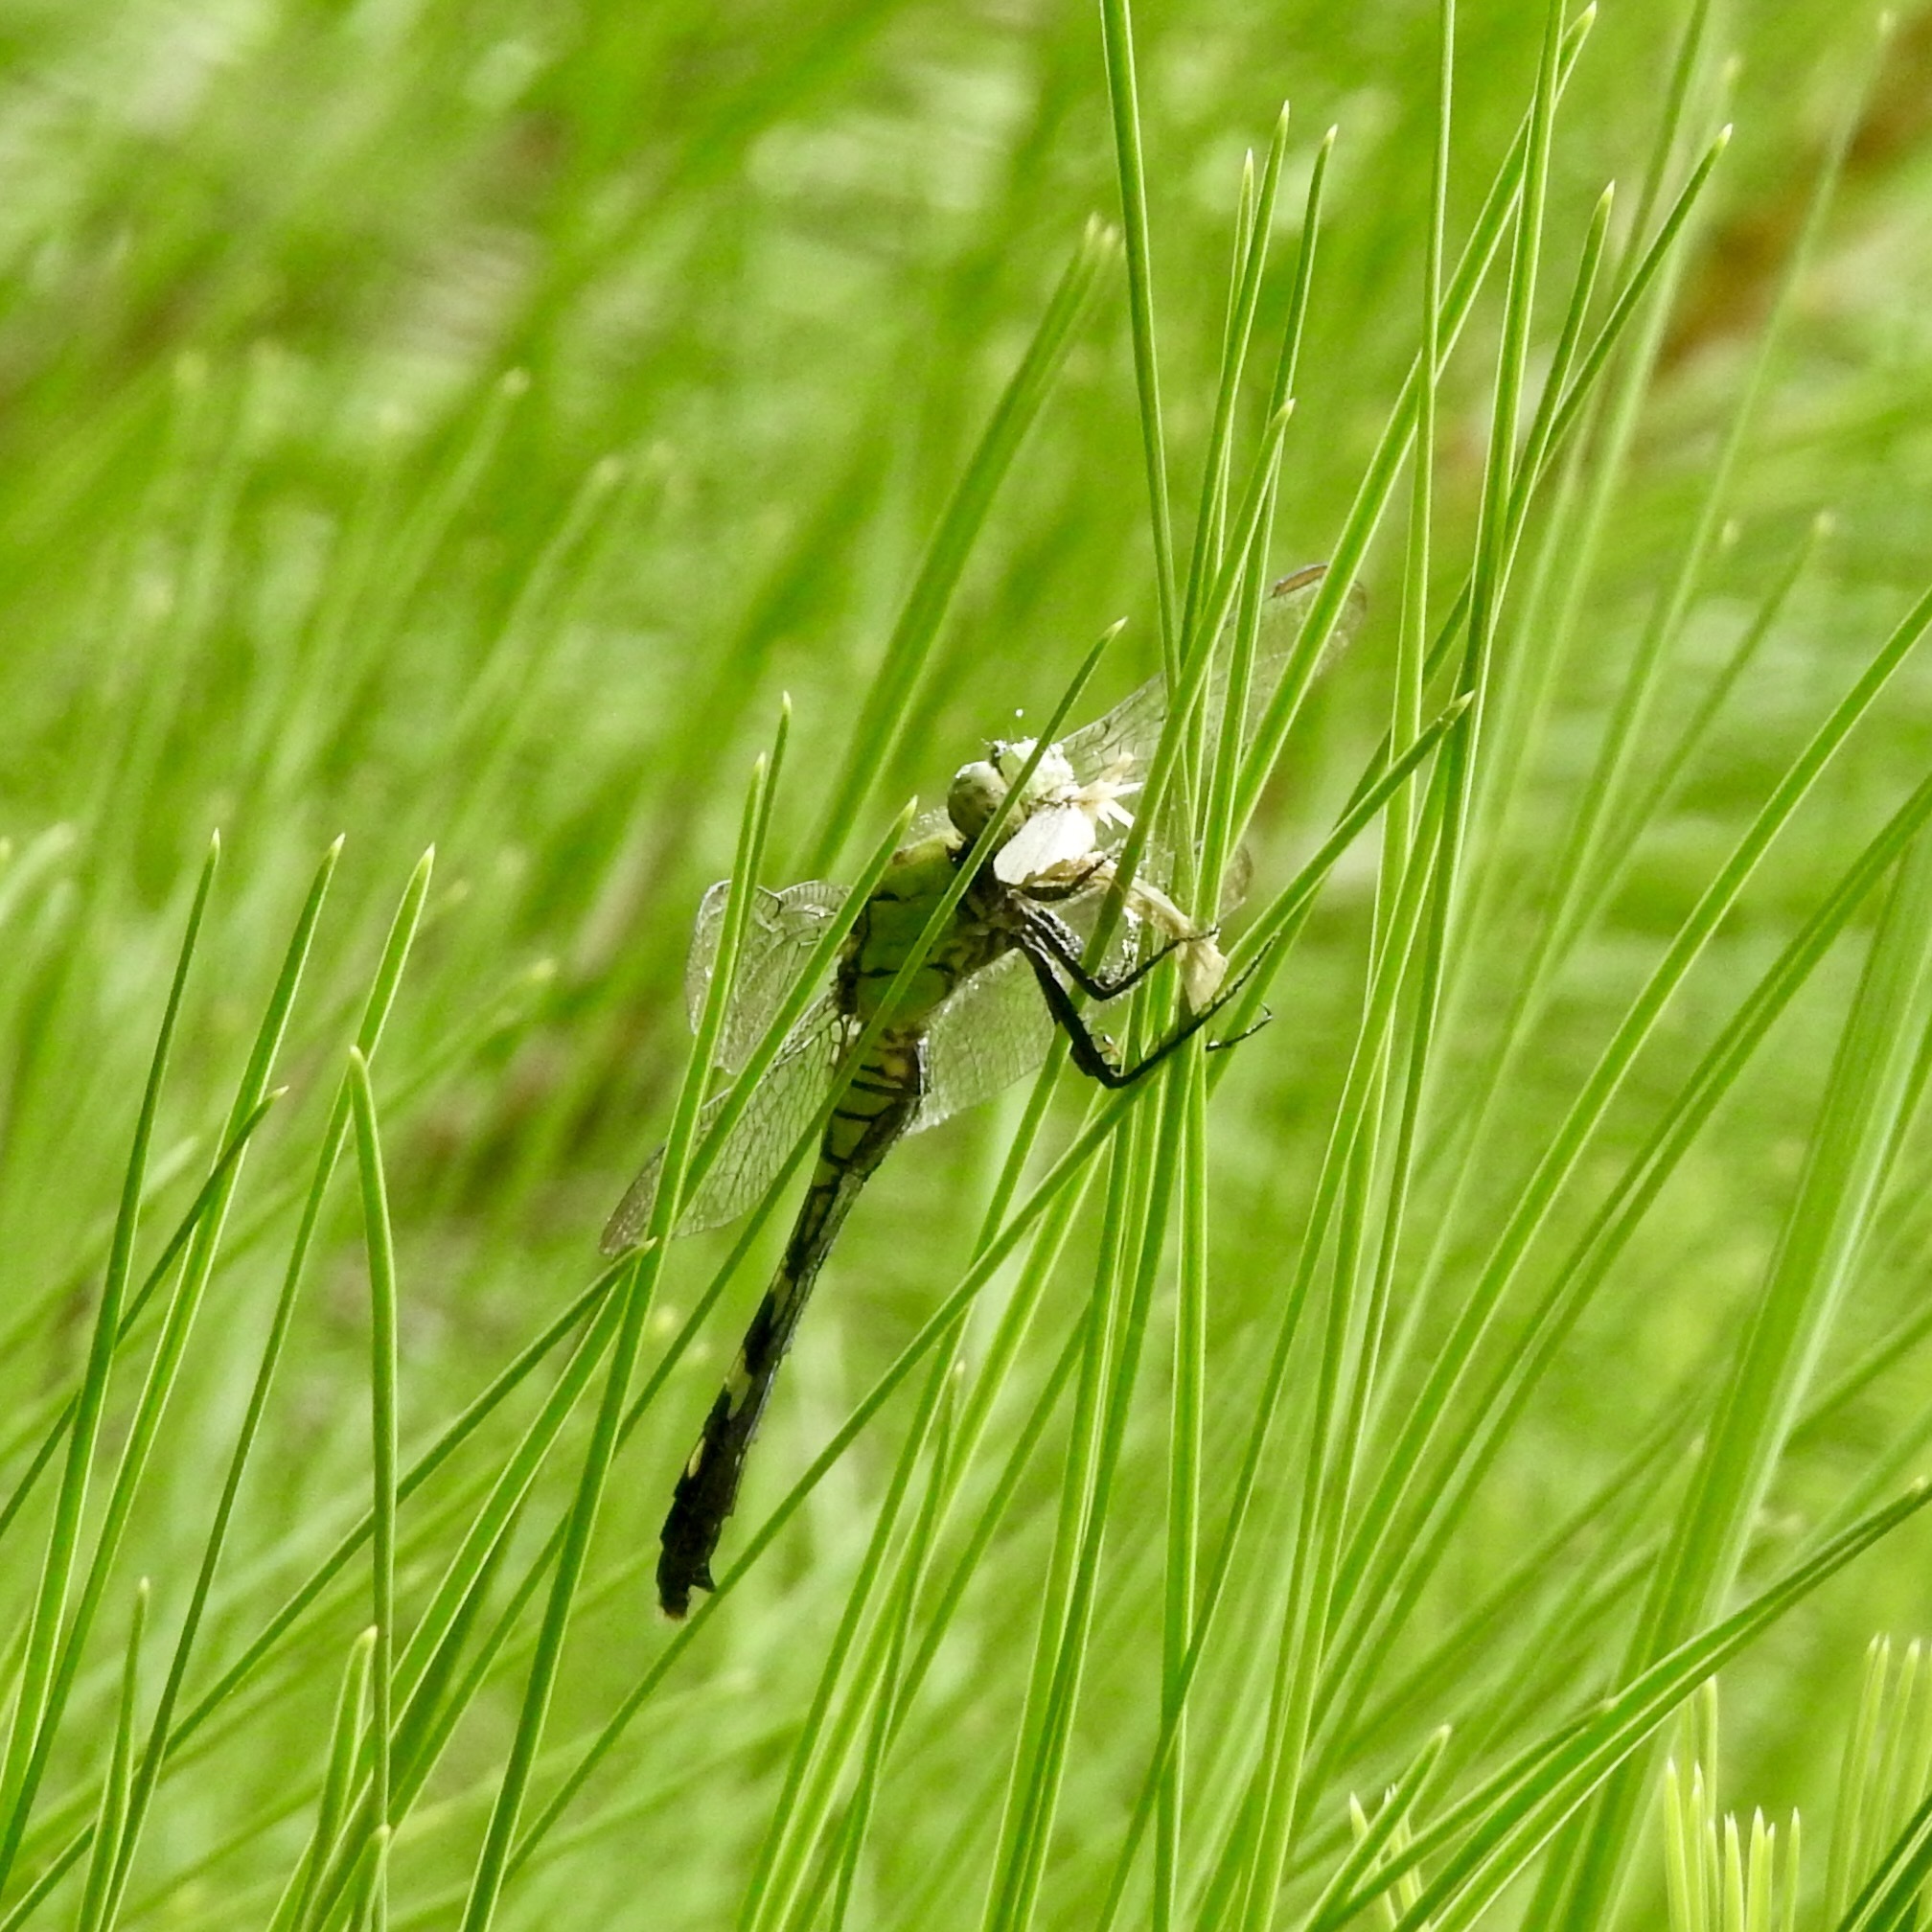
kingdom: Animalia
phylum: Arthropoda
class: Insecta
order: Odonata
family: Libellulidae
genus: Erythemis
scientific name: Erythemis simplicicollis
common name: Eastern pondhawk
